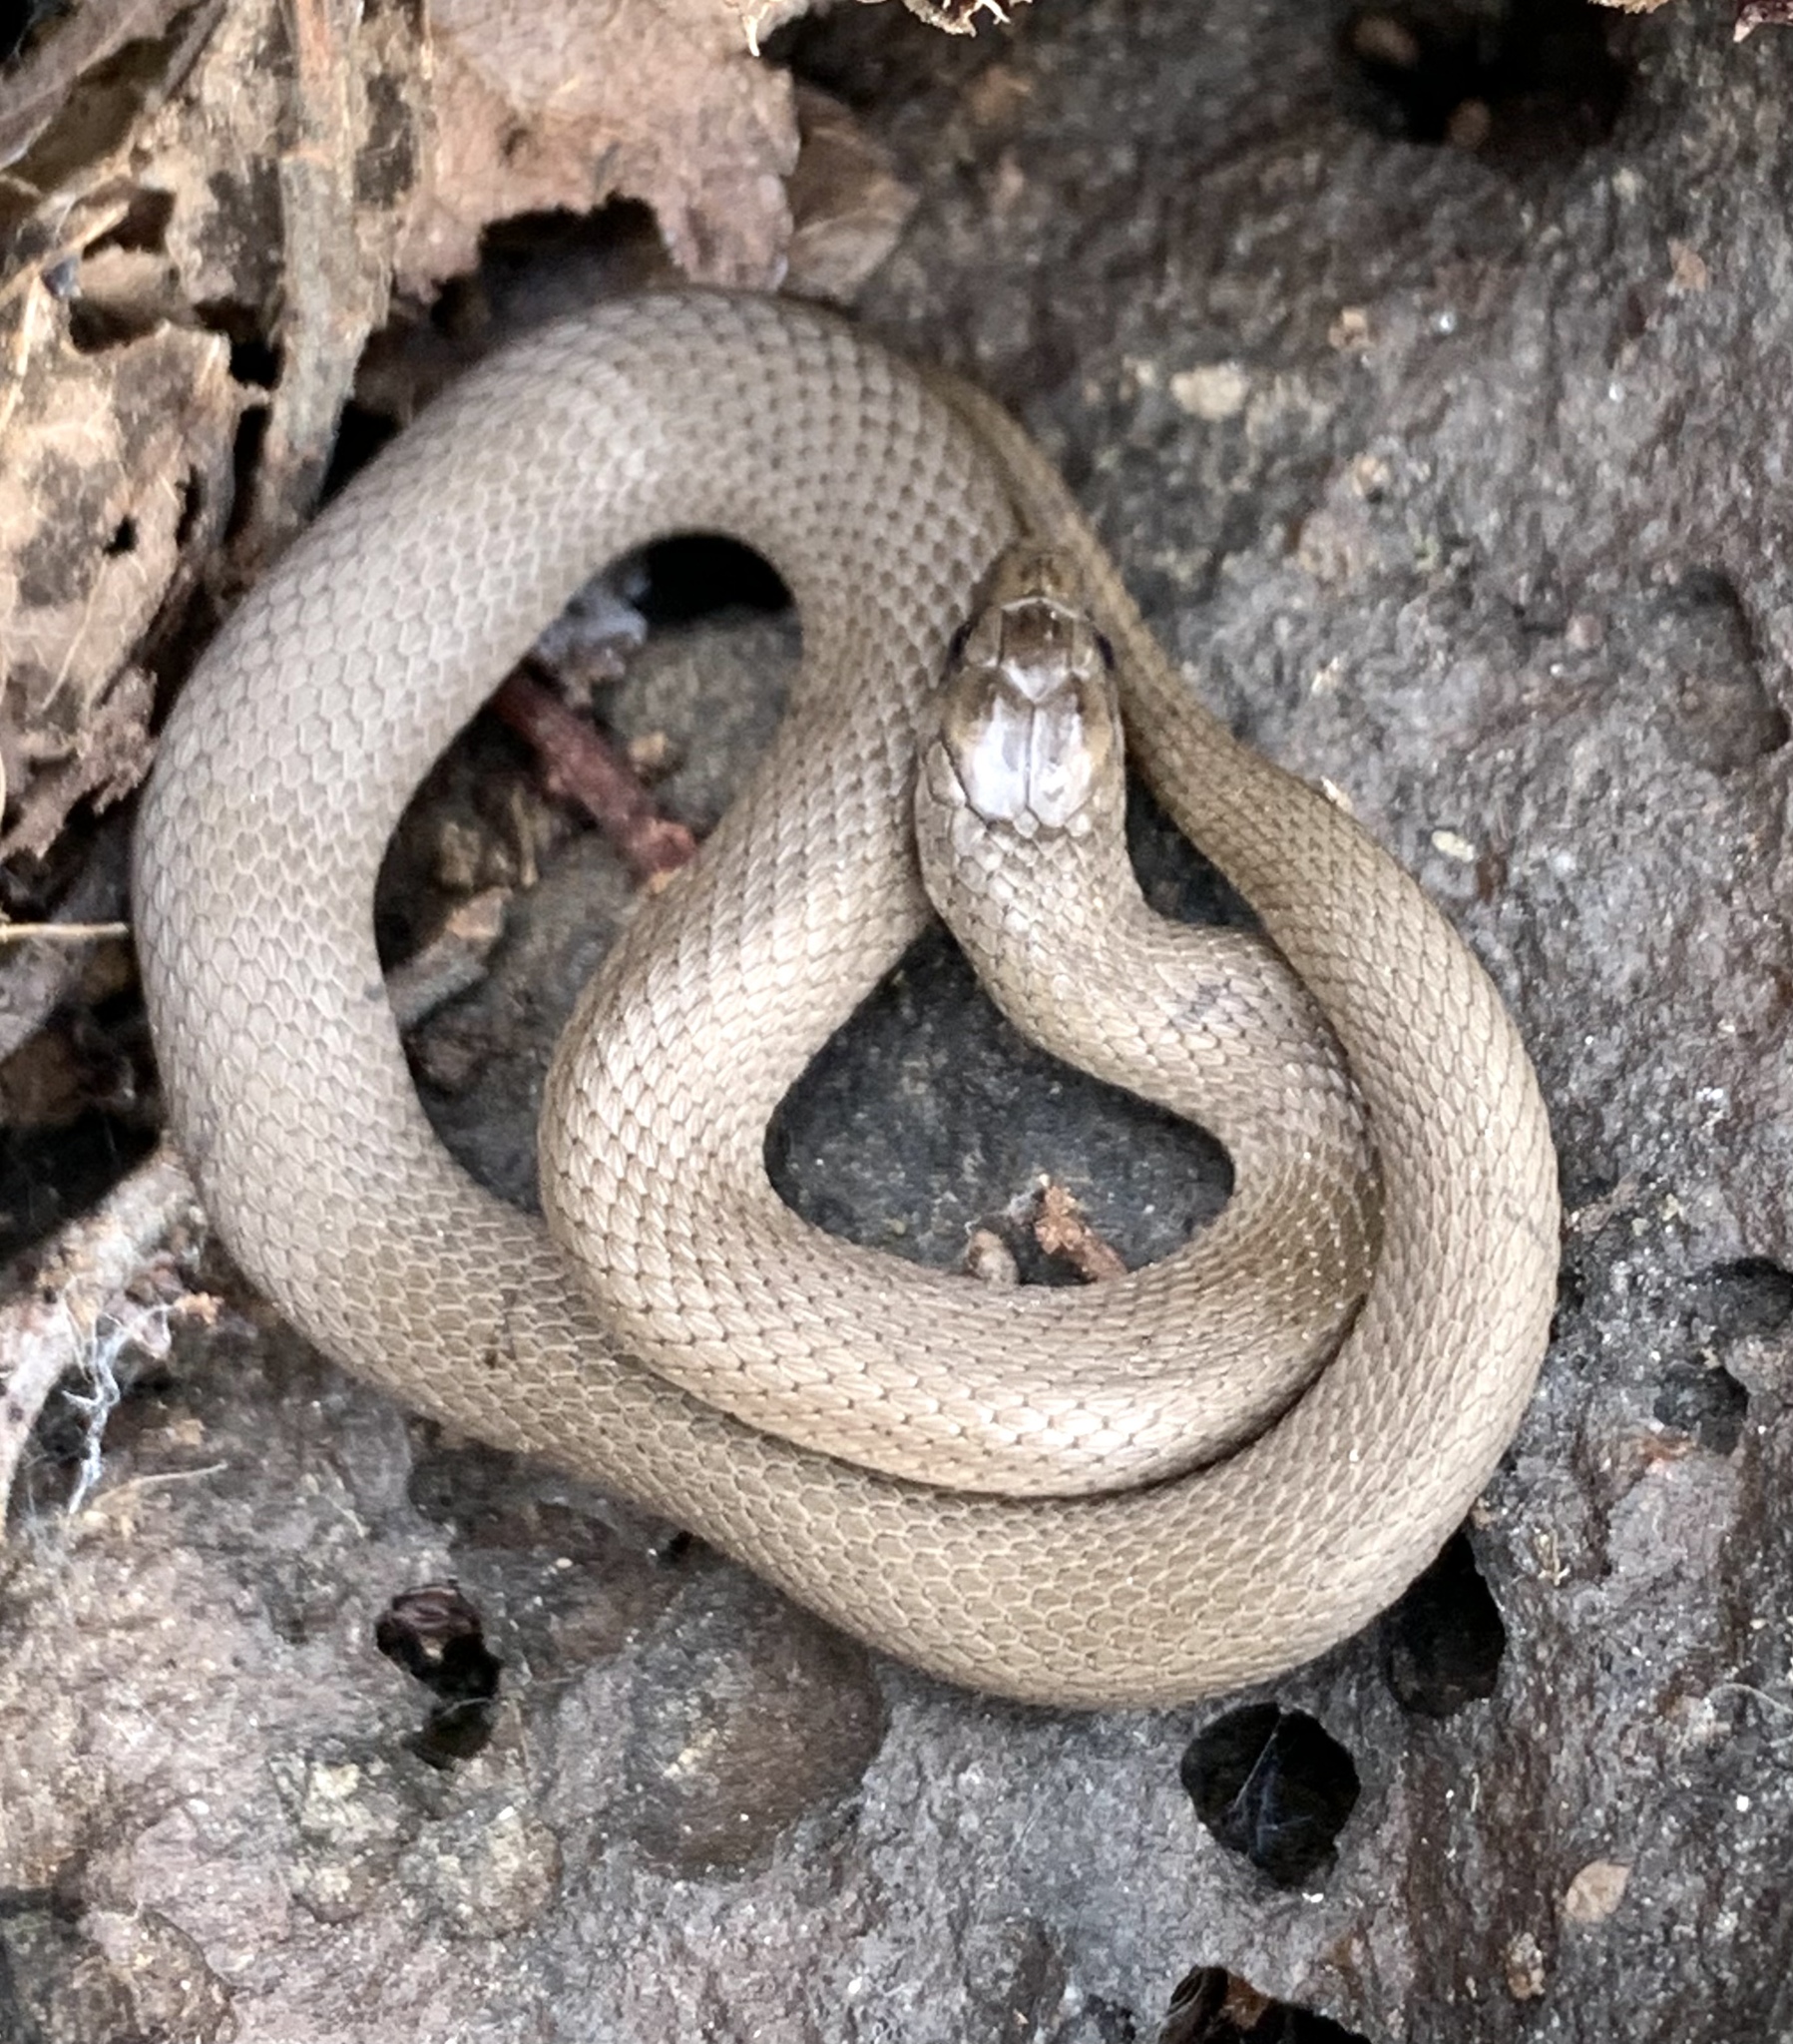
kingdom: Animalia
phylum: Chordata
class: Squamata
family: Colubridae
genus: Haldea
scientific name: Haldea striatula
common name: Rough earth snake
